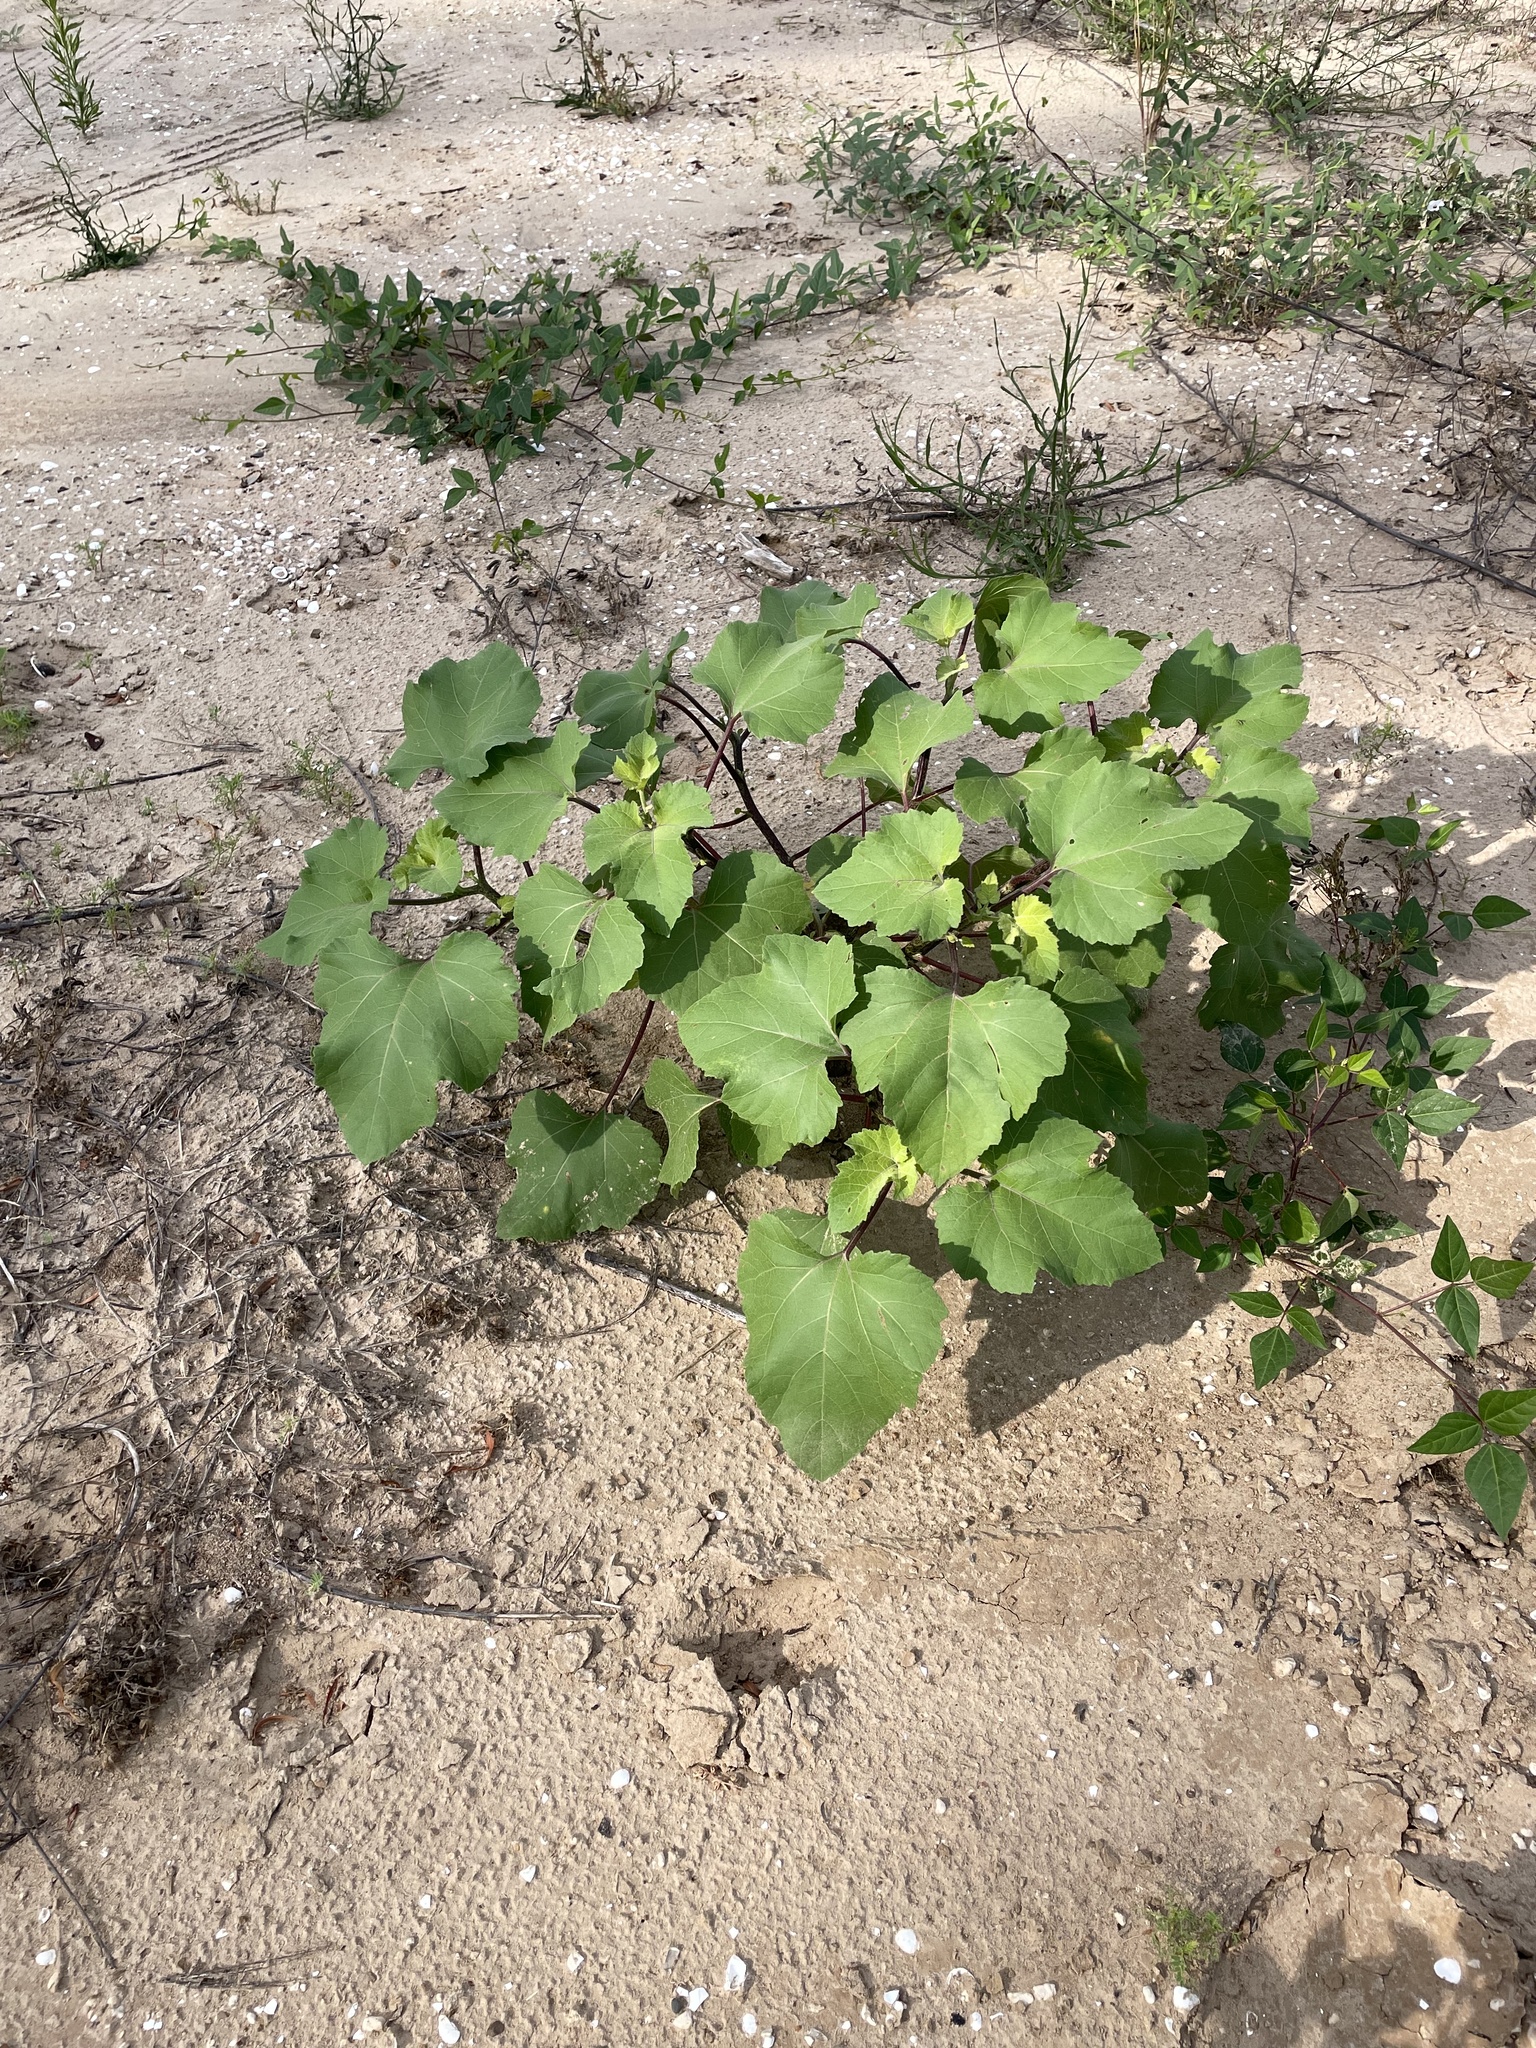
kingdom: Plantae
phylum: Tracheophyta
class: Magnoliopsida
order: Asterales
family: Asteraceae
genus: Xanthium
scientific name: Xanthium strumarium
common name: Rough cocklebur
